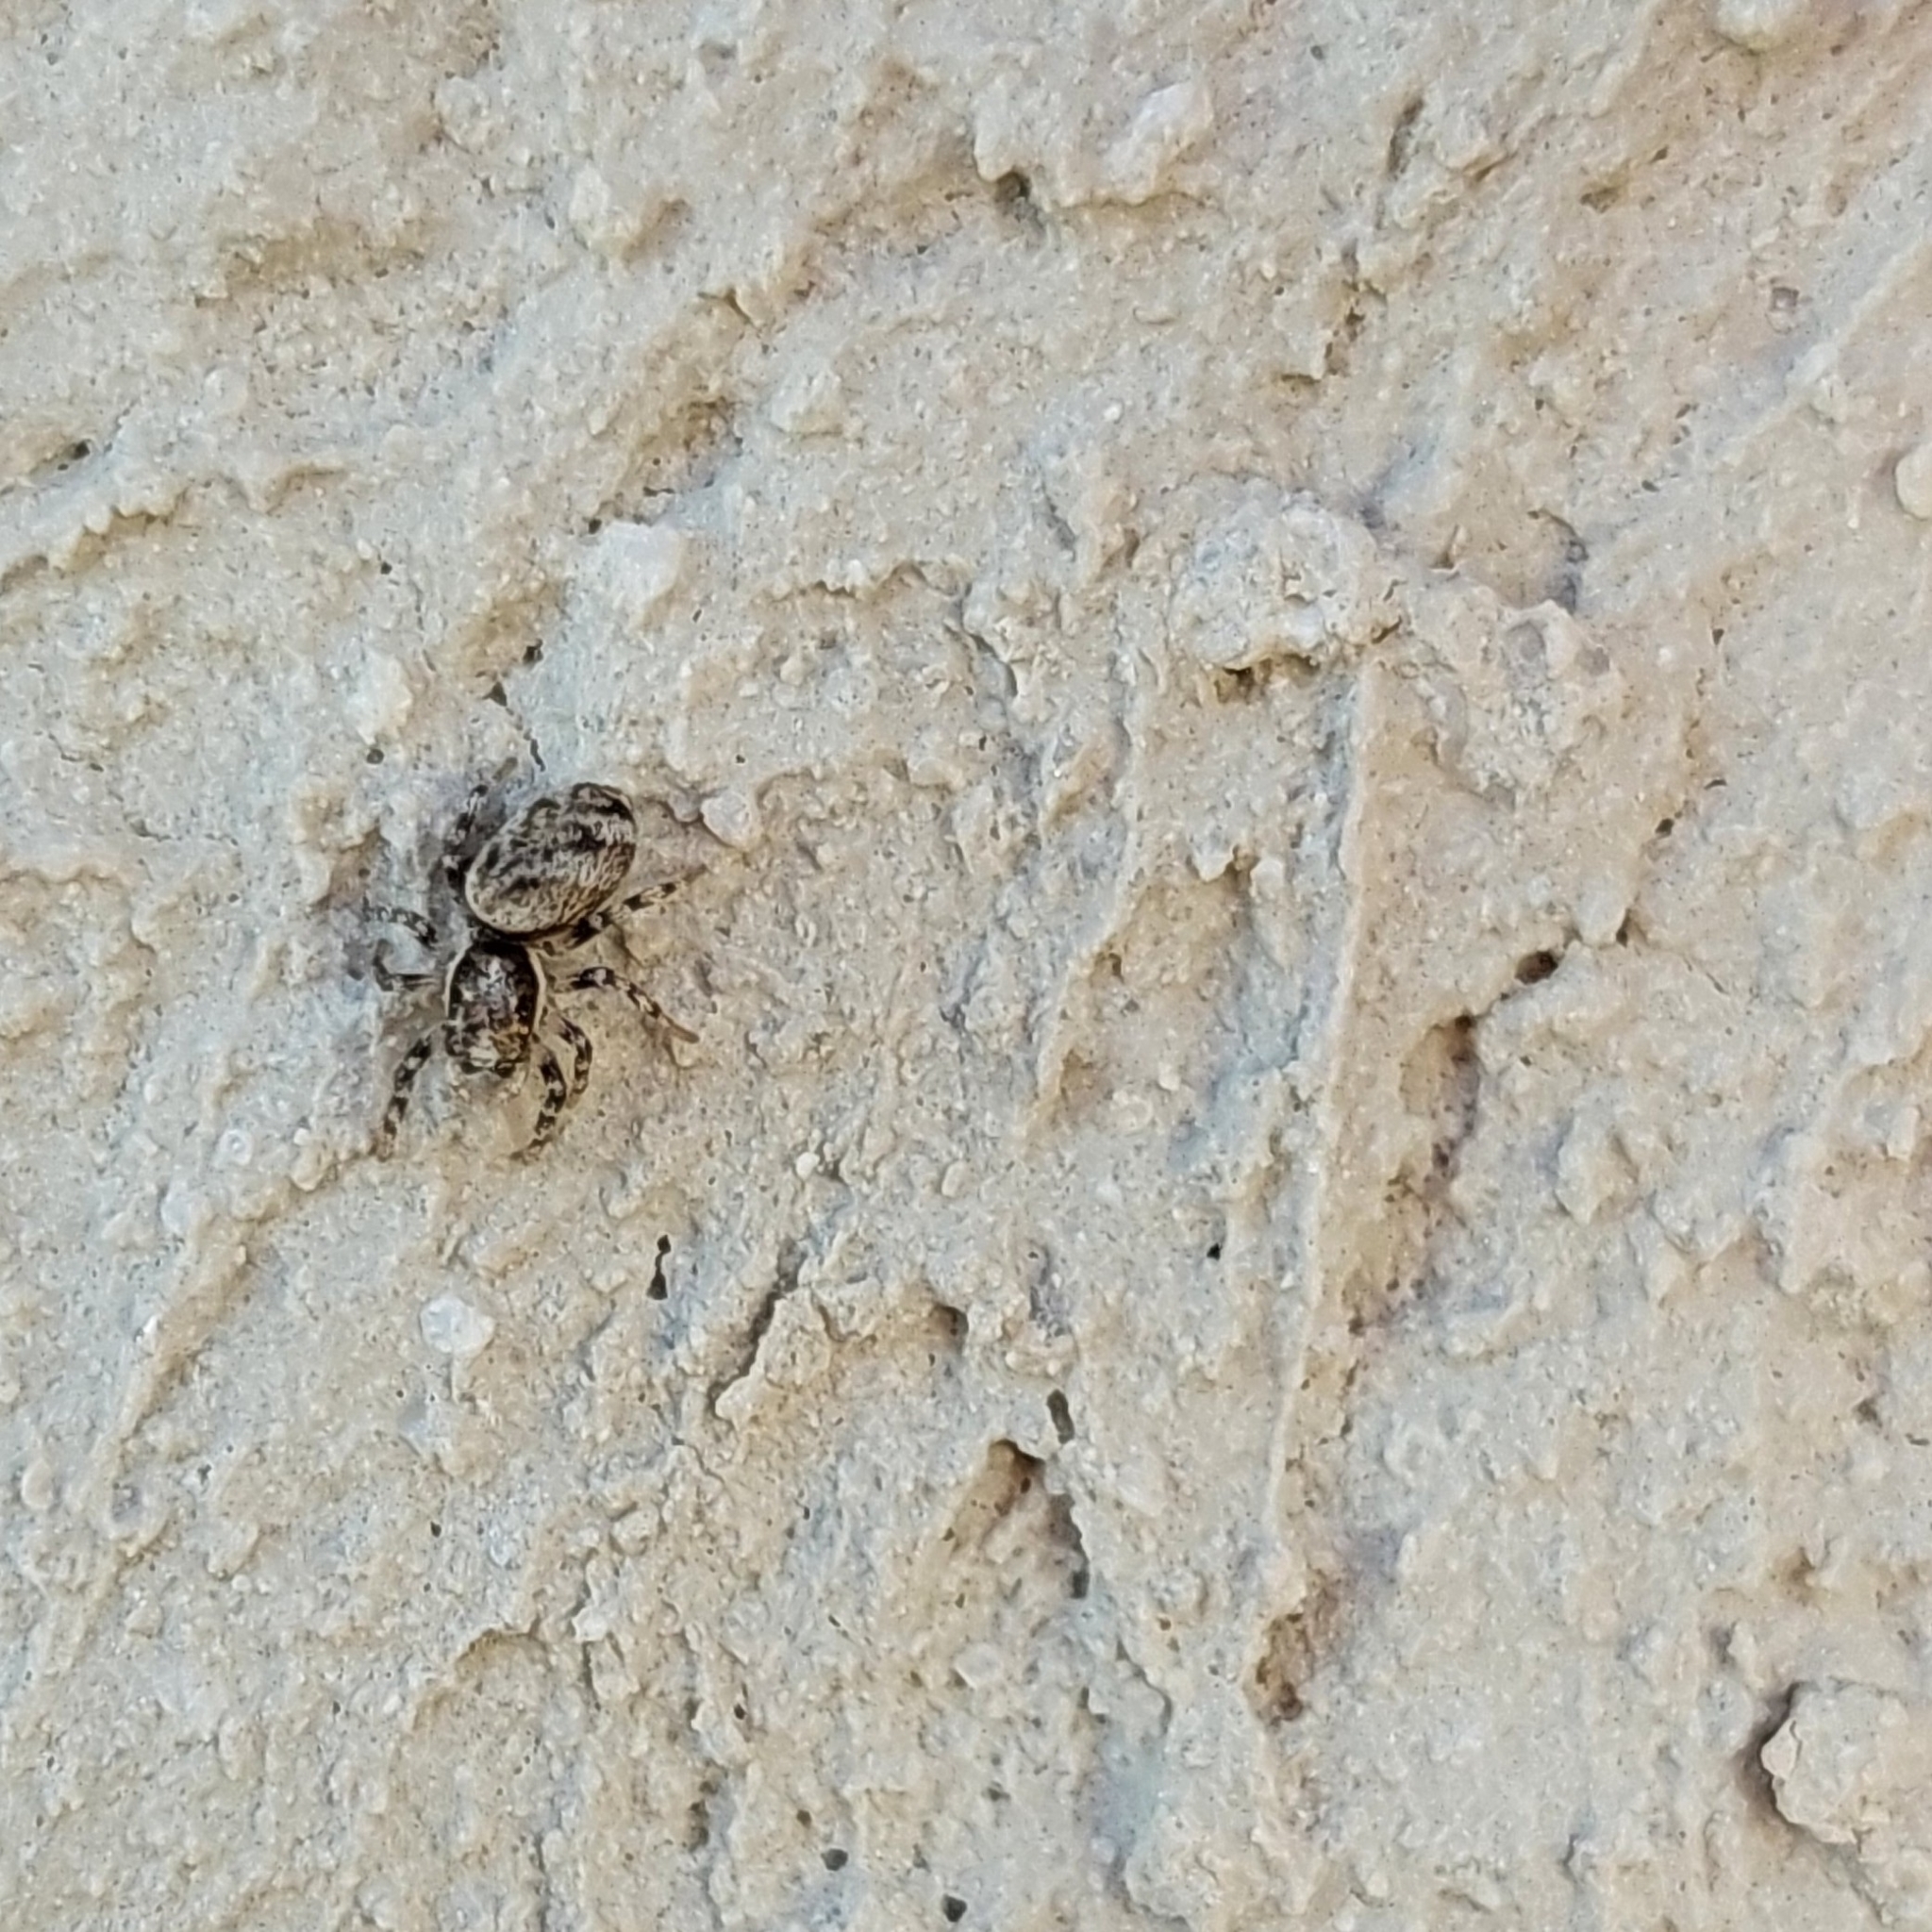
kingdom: Animalia
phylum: Arthropoda
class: Arachnida
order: Araneae
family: Salticidae
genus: Salticus
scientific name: Salticus mutabilis
